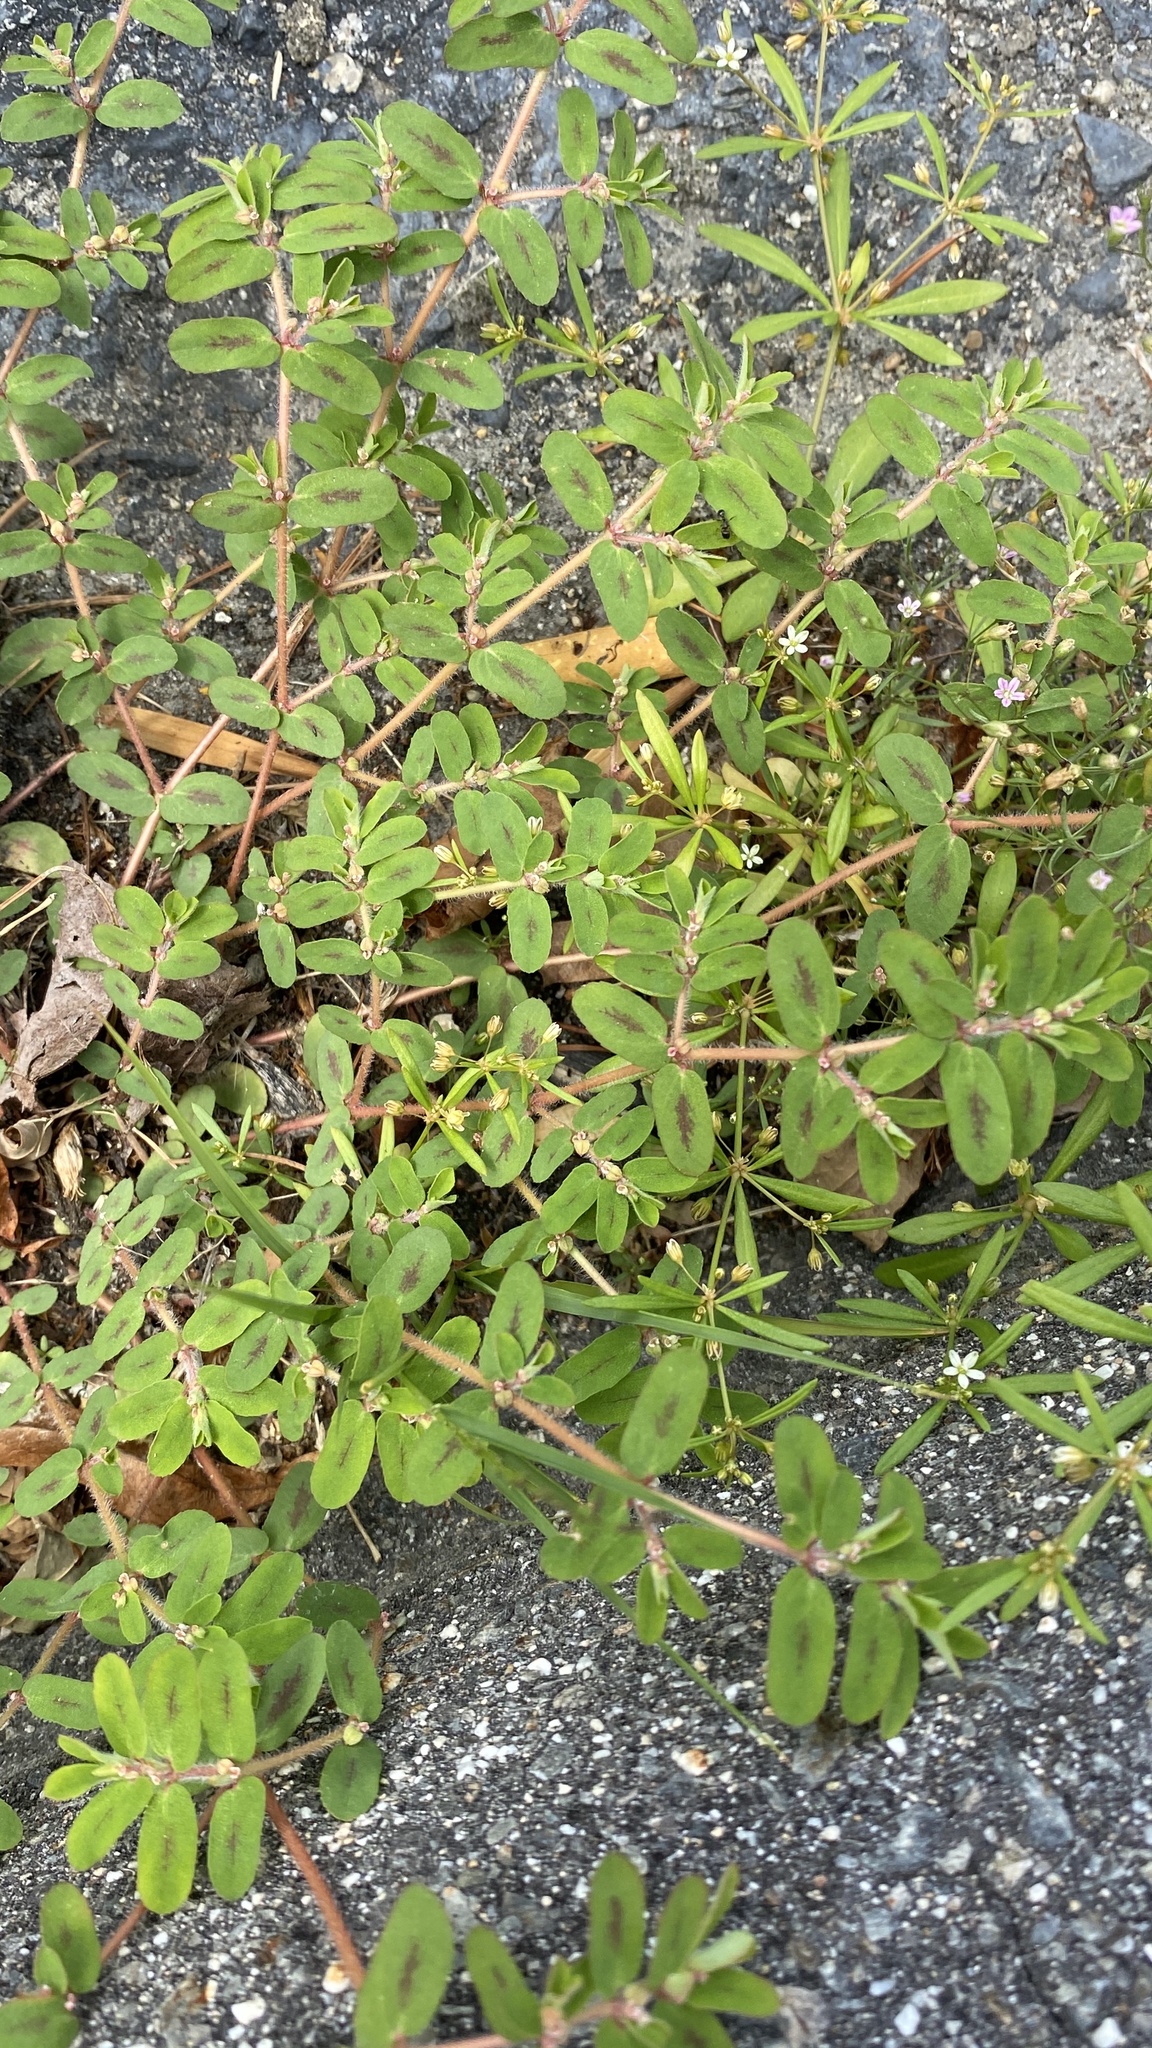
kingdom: Plantae
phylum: Tracheophyta
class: Magnoliopsida
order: Malpighiales
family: Euphorbiaceae
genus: Euphorbia
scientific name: Euphorbia maculata
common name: Spotted spurge
